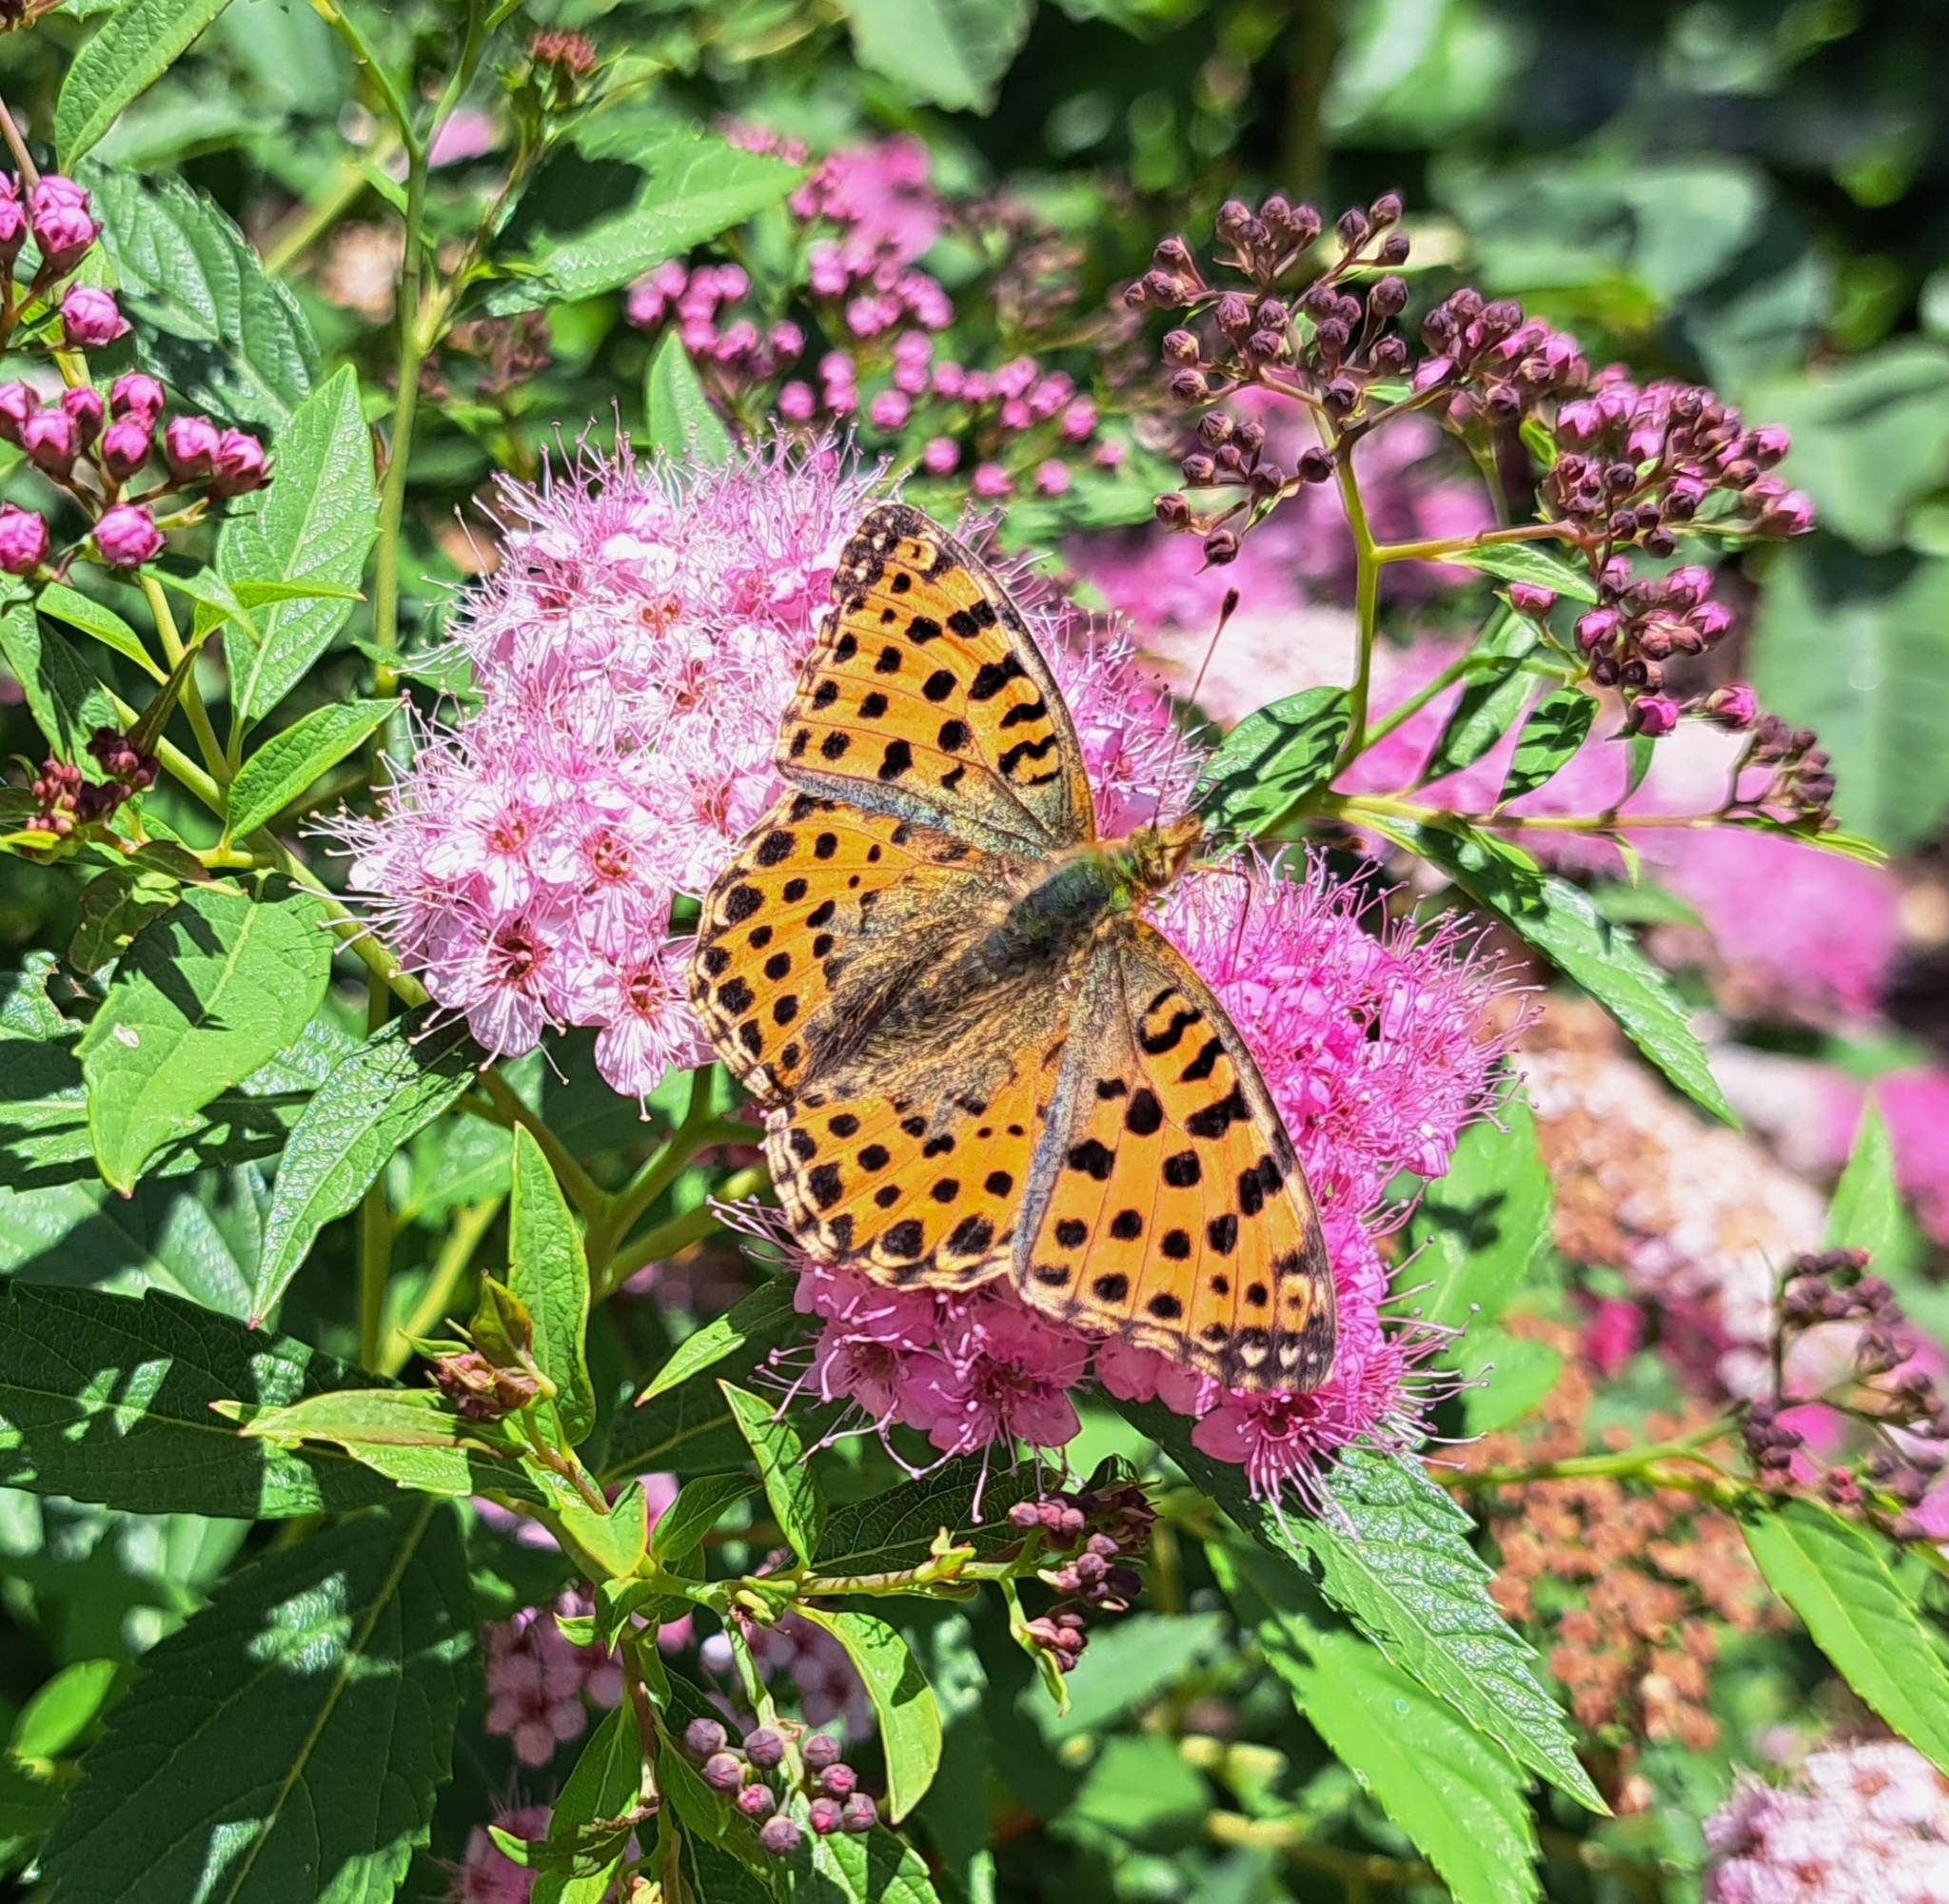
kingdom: Animalia
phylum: Arthropoda
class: Insecta
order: Lepidoptera
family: Nymphalidae
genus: Issoria
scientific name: Issoria lathonia
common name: Queen of spain fritillary
